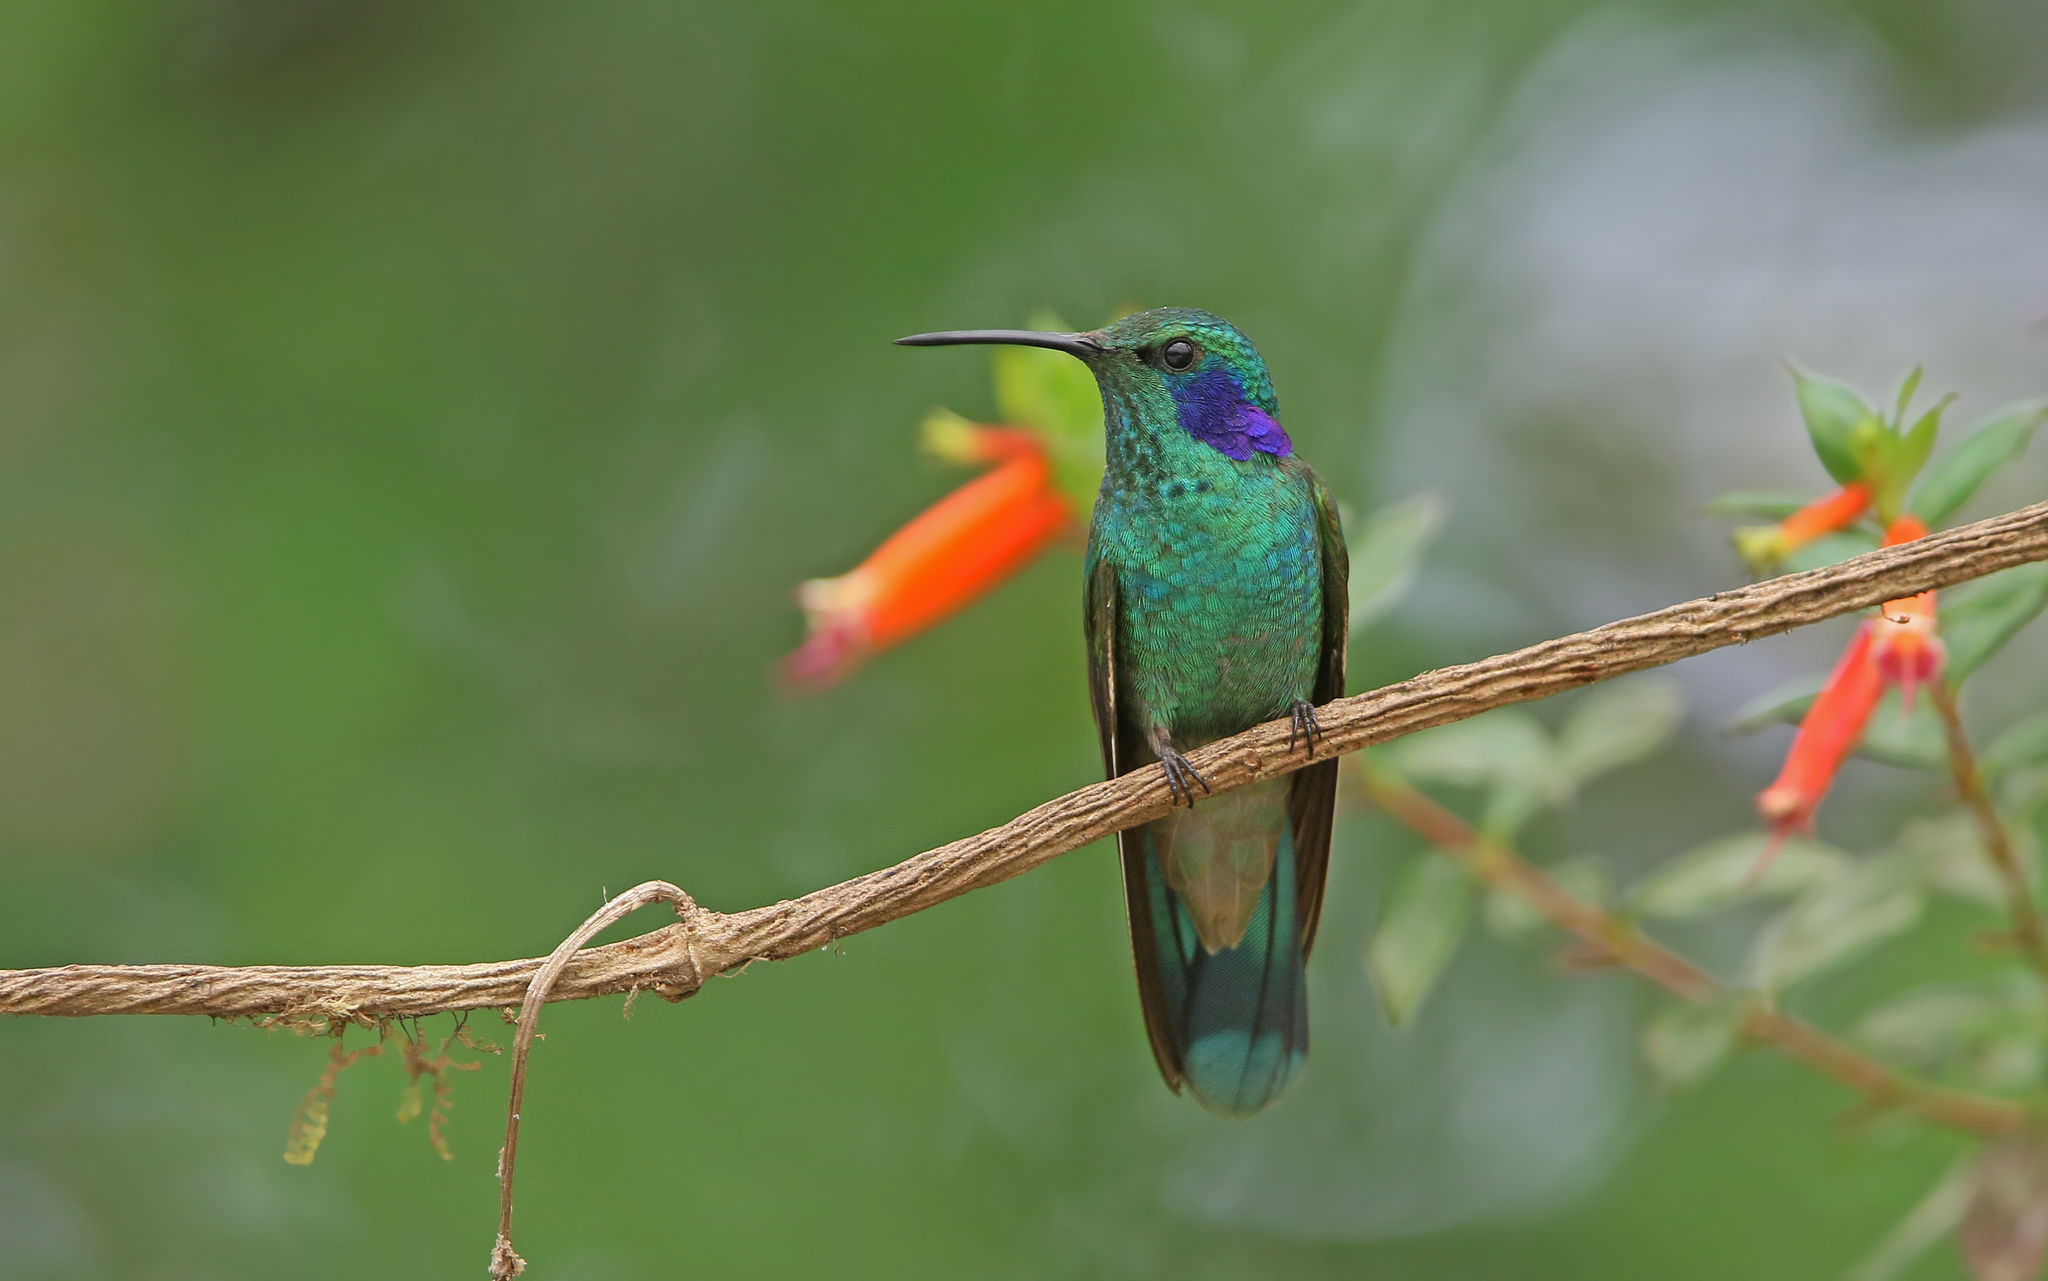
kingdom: Animalia
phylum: Chordata
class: Aves
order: Apodiformes
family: Trochilidae
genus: Colibri
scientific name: Colibri cyanotus
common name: Lesser violetear
